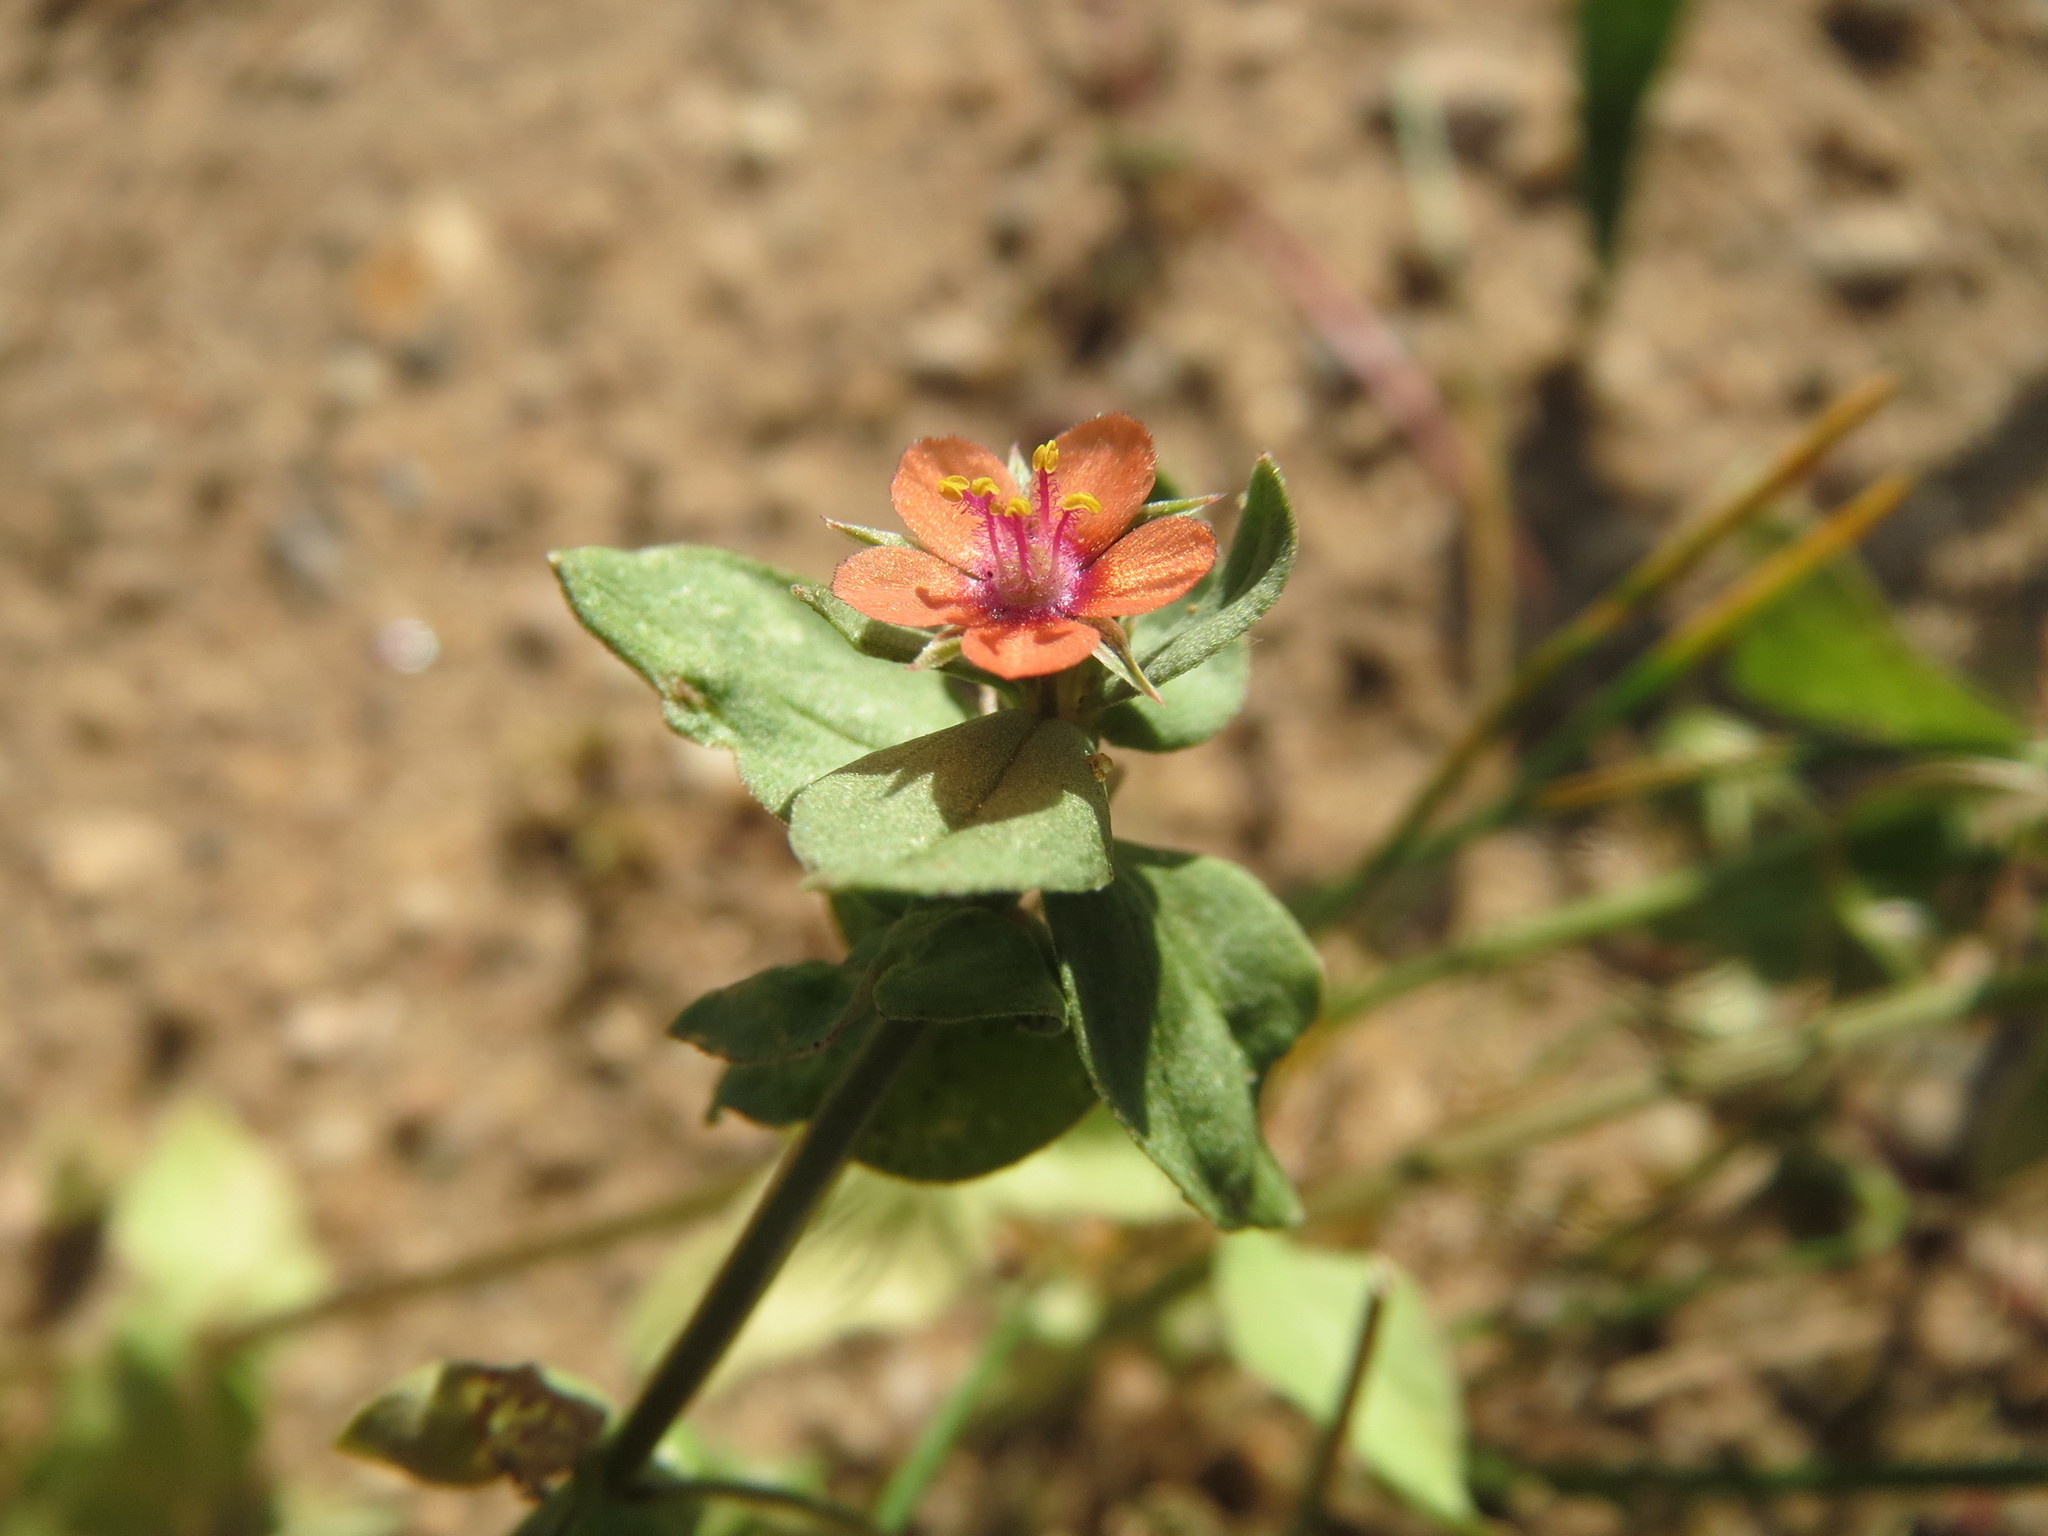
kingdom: Plantae
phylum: Tracheophyta
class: Magnoliopsida
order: Ericales
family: Primulaceae
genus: Lysimachia
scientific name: Lysimachia arvensis
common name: Scarlet pimpernel
